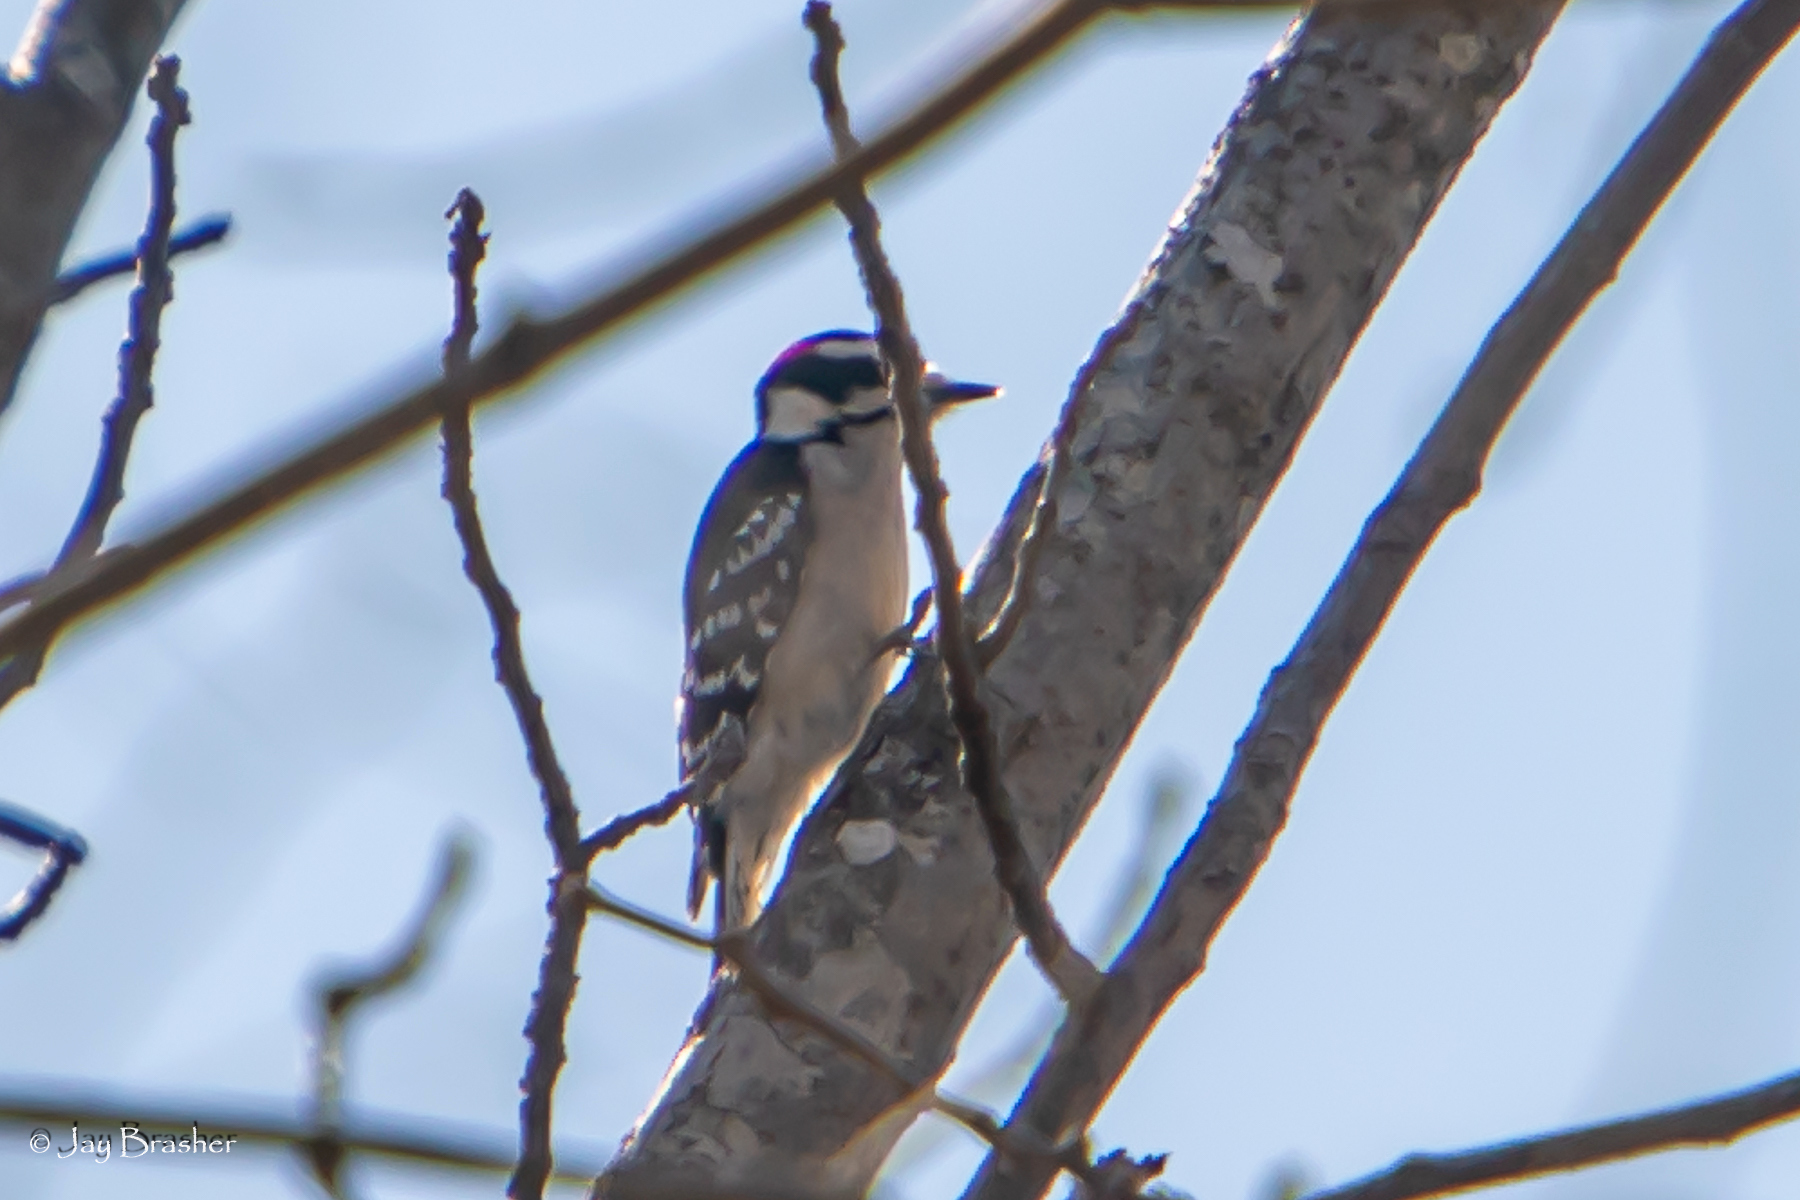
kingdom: Animalia
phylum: Chordata
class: Aves
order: Piciformes
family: Picidae
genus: Dryobates
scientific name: Dryobates pubescens
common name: Downy woodpecker
